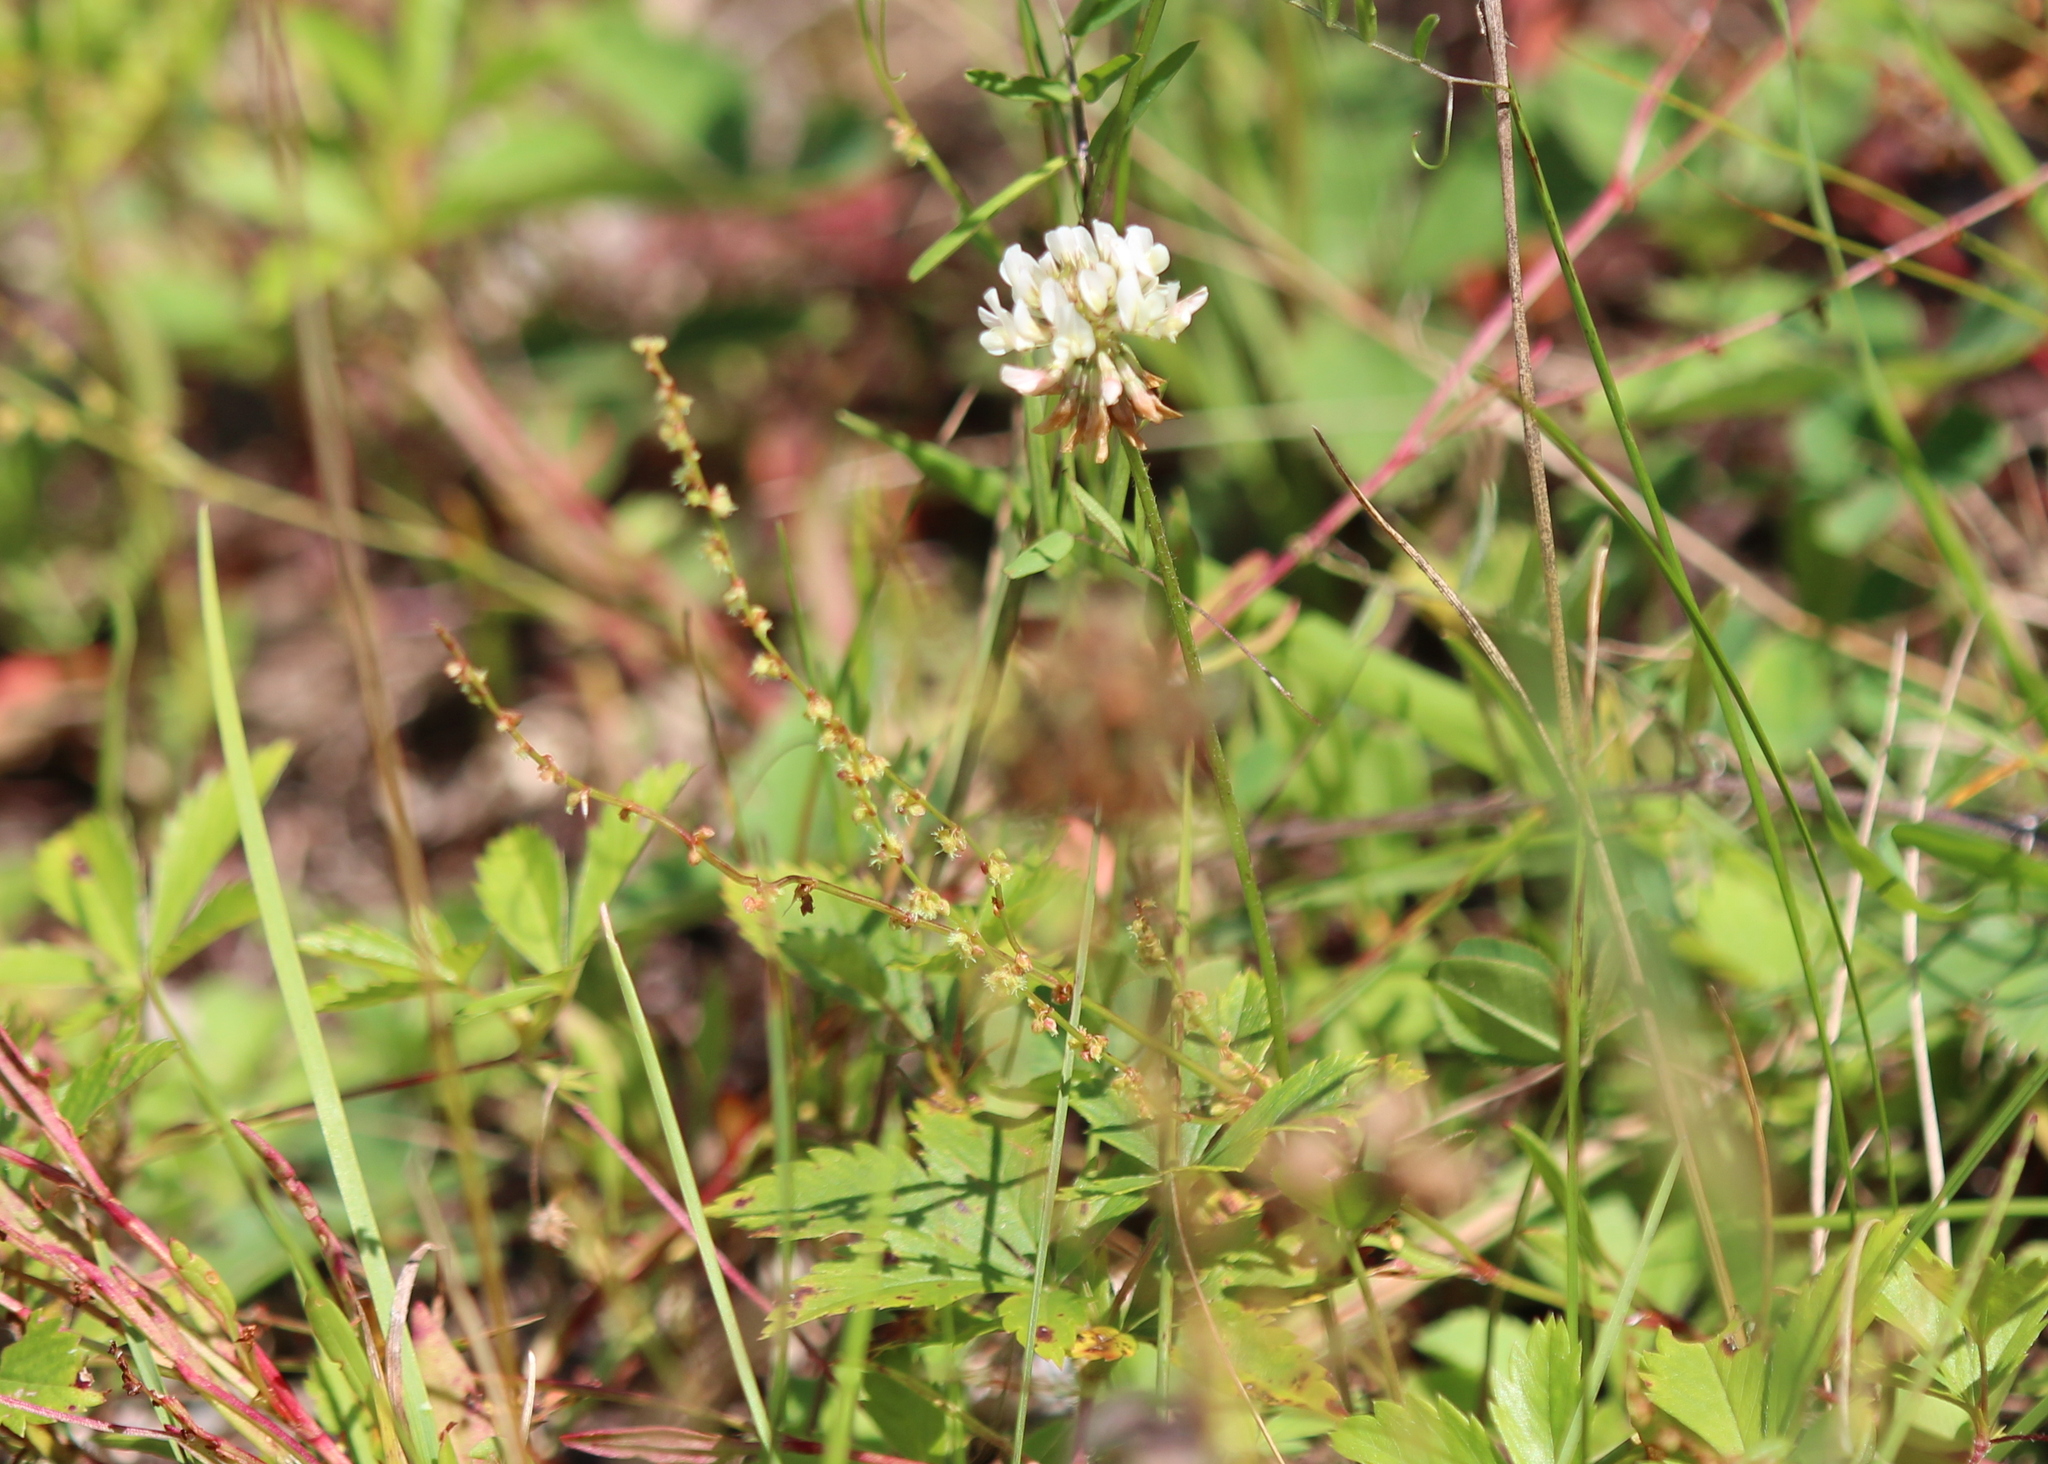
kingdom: Plantae
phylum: Tracheophyta
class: Magnoliopsida
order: Fabales
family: Fabaceae
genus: Trifolium
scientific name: Trifolium repens
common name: White clover
